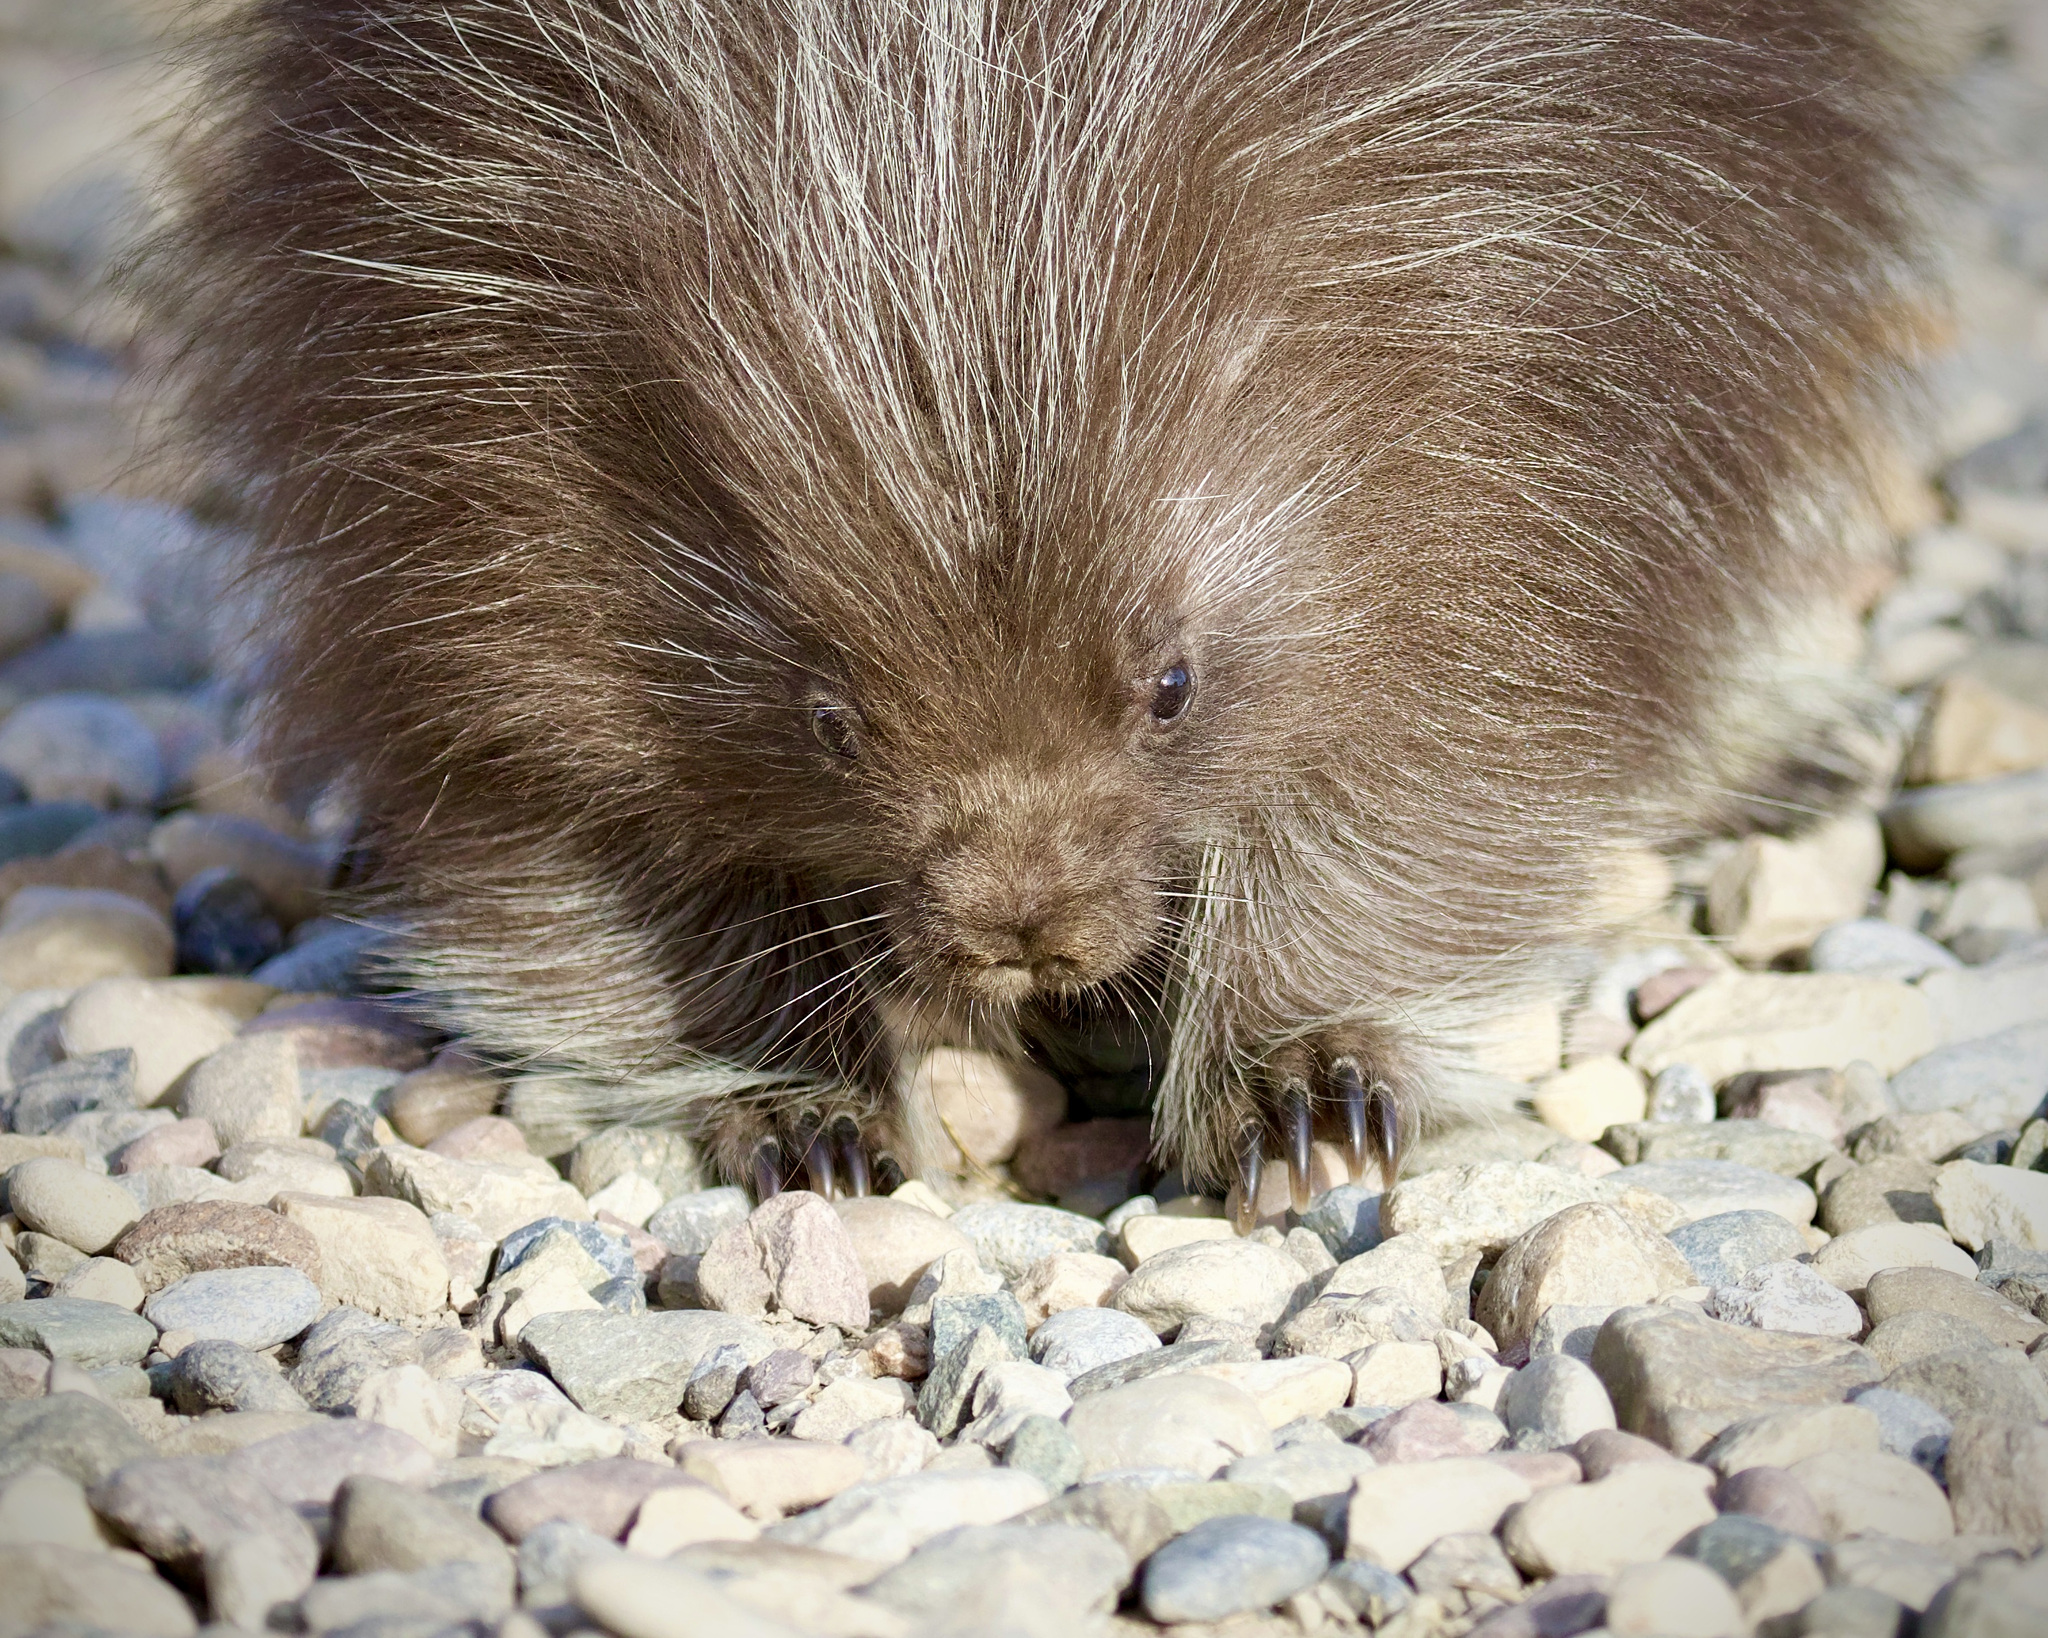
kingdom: Animalia
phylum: Chordata
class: Mammalia
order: Rodentia
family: Erethizontidae
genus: Erethizon
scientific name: Erethizon dorsatus
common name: North american porcupine
